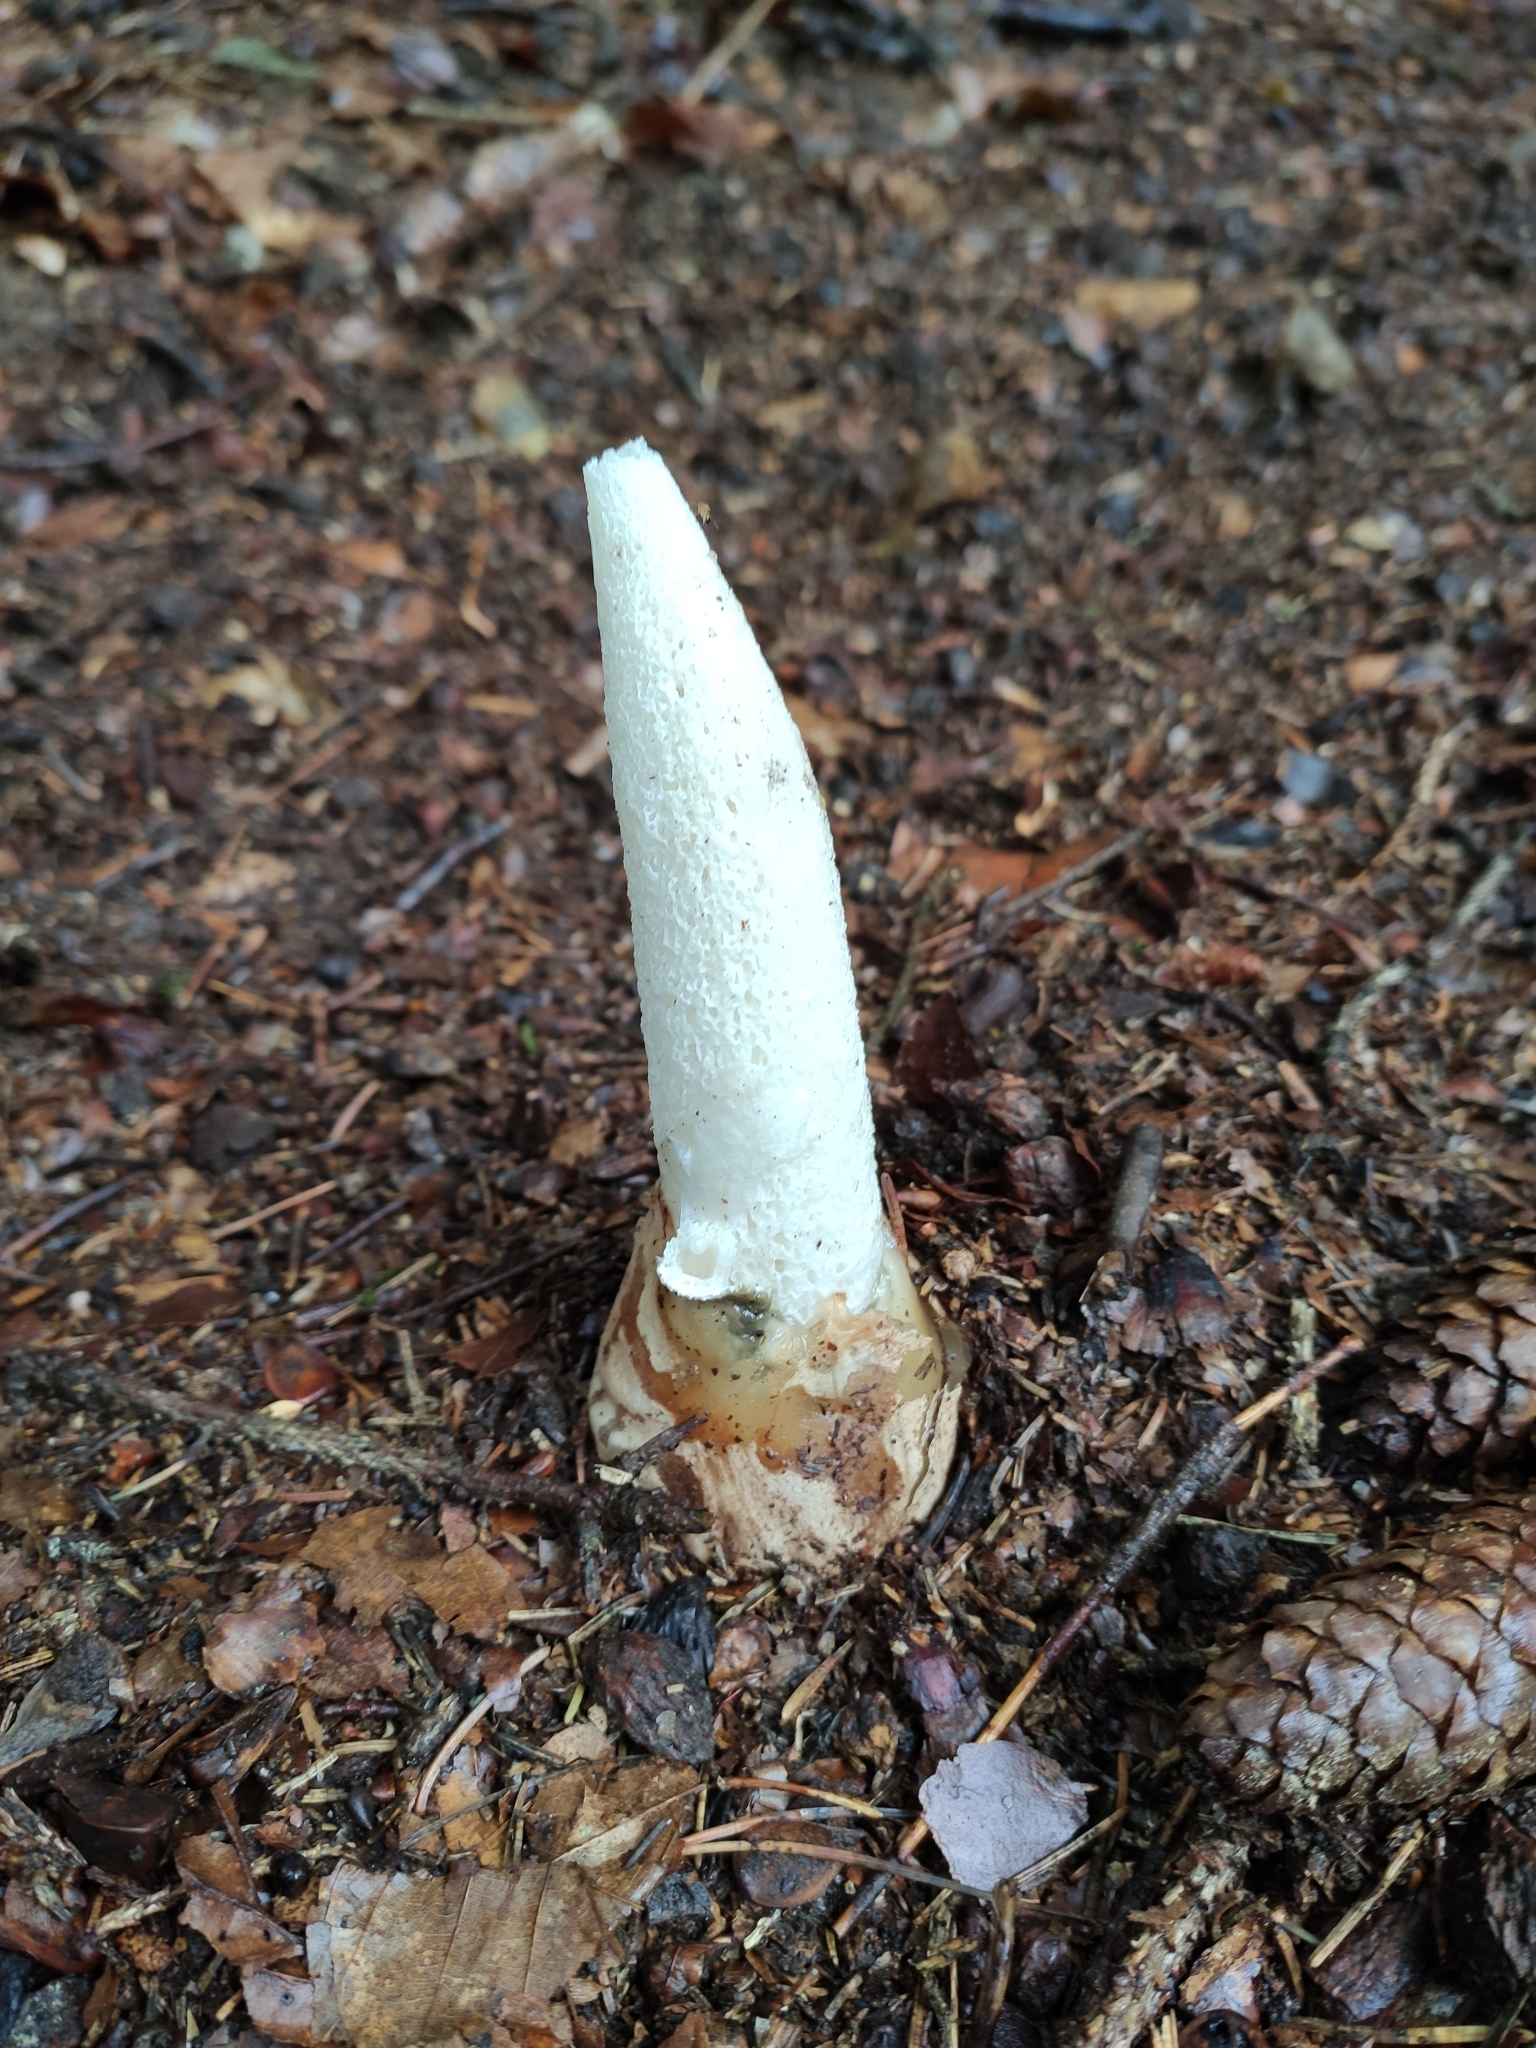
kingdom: Fungi
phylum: Basidiomycota
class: Agaricomycetes
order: Phallales
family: Phallaceae
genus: Phallus
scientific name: Phallus
